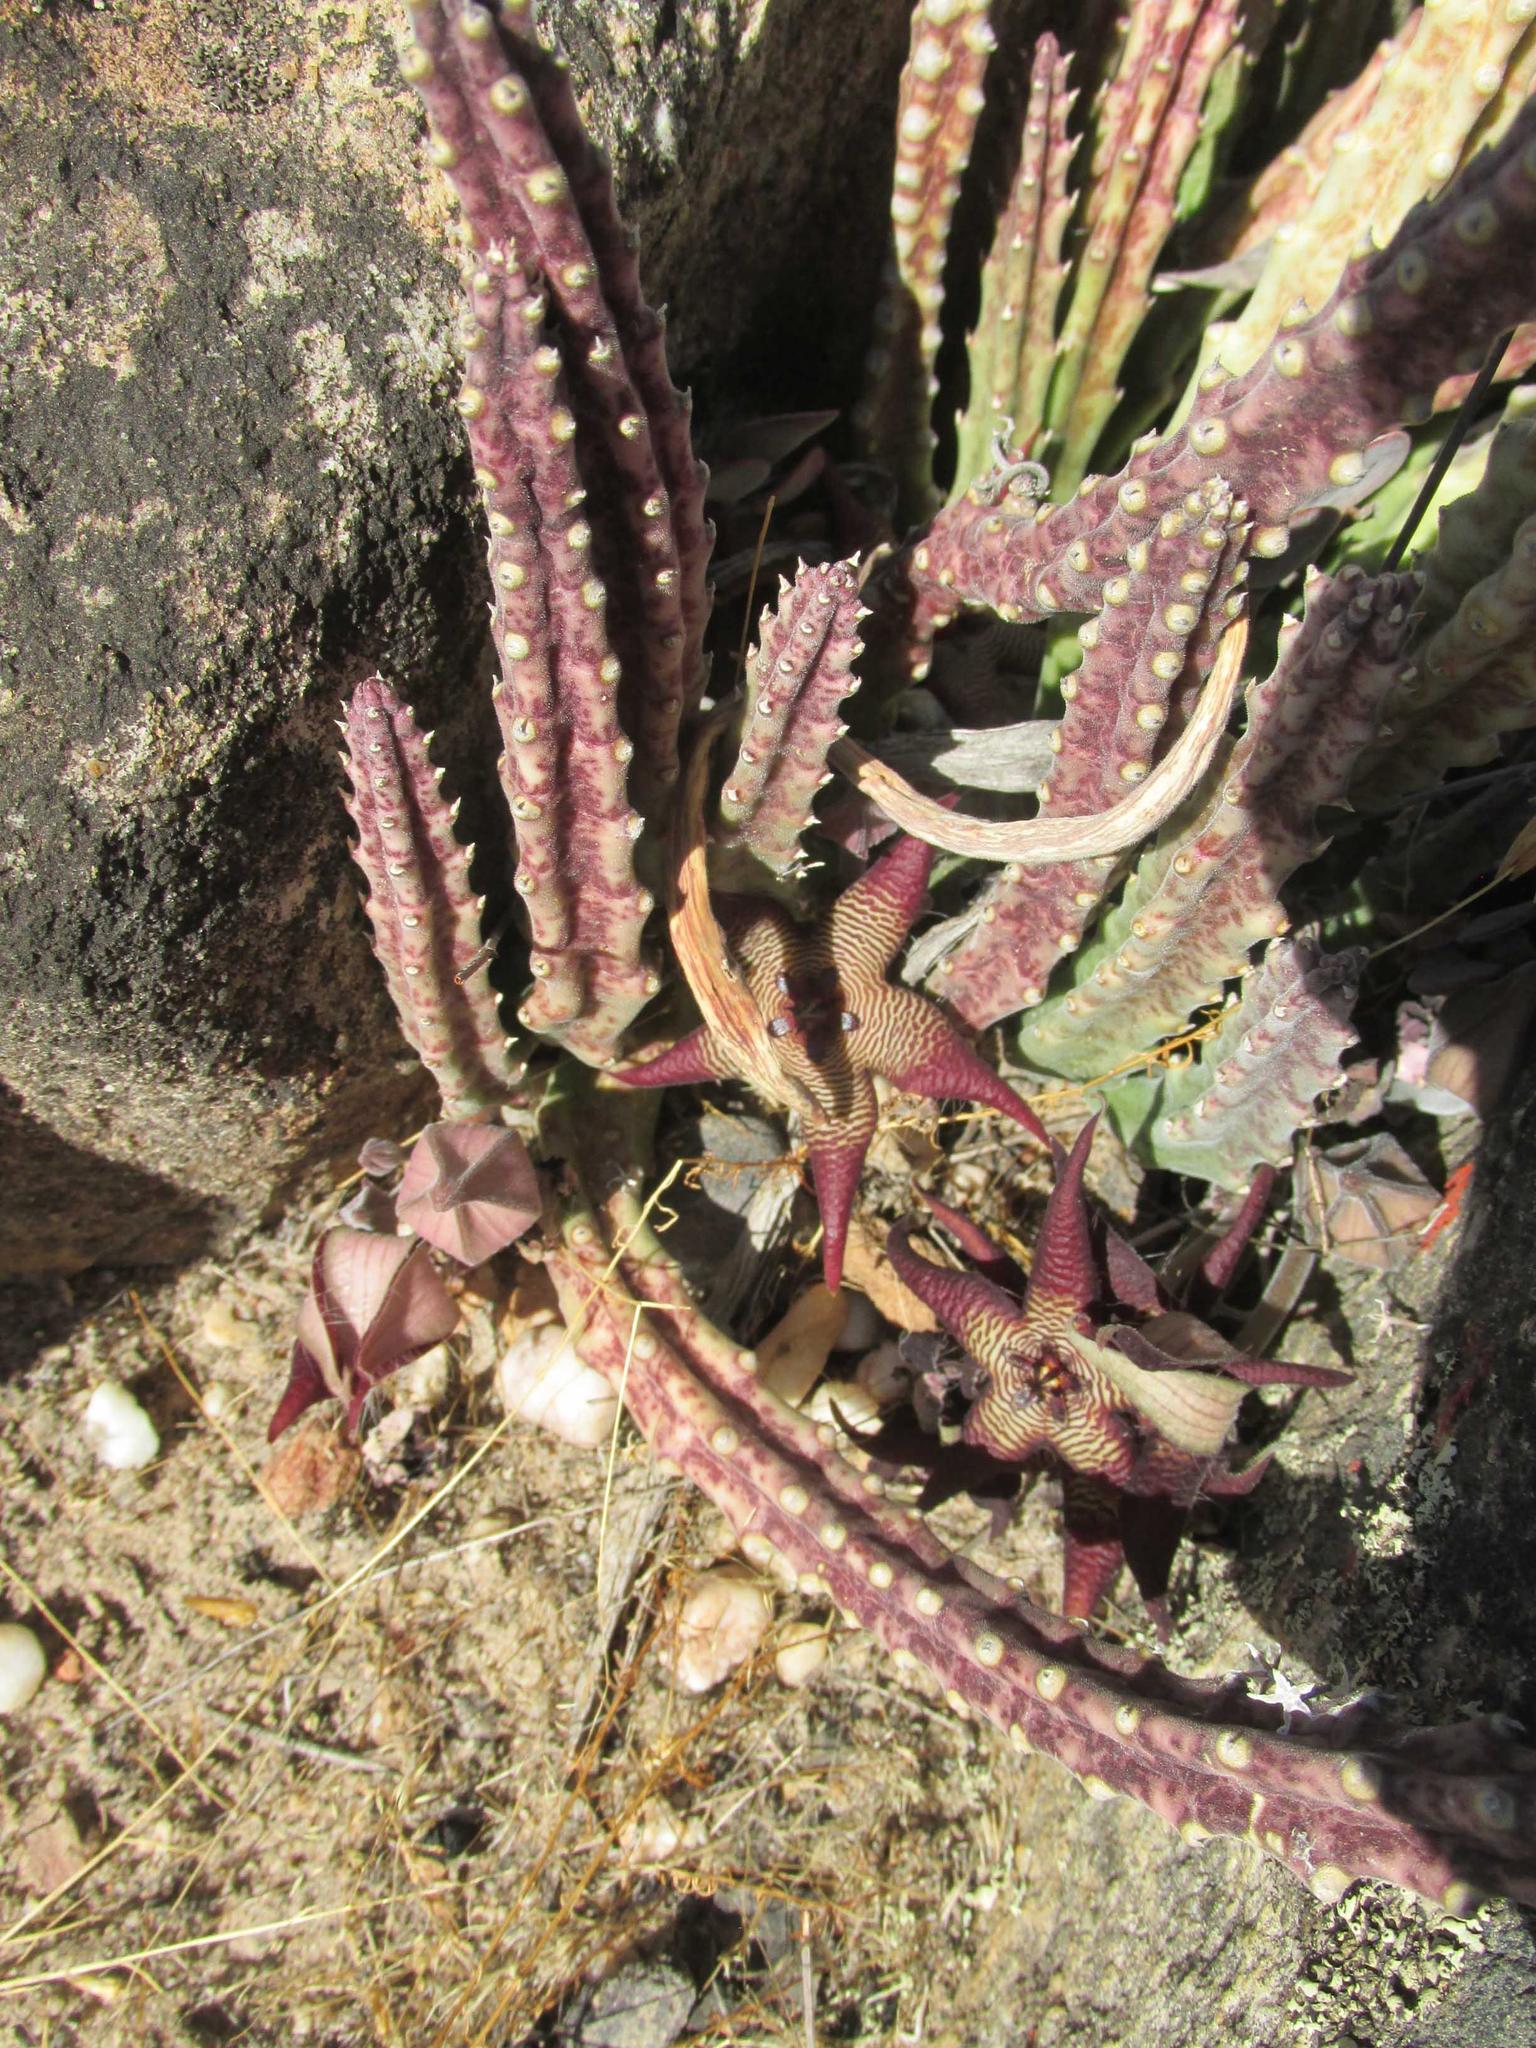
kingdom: Plantae
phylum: Tracheophyta
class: Magnoliopsida
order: Gentianales
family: Apocynaceae
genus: Ceropegia
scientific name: Ceropegia cedrimontana
